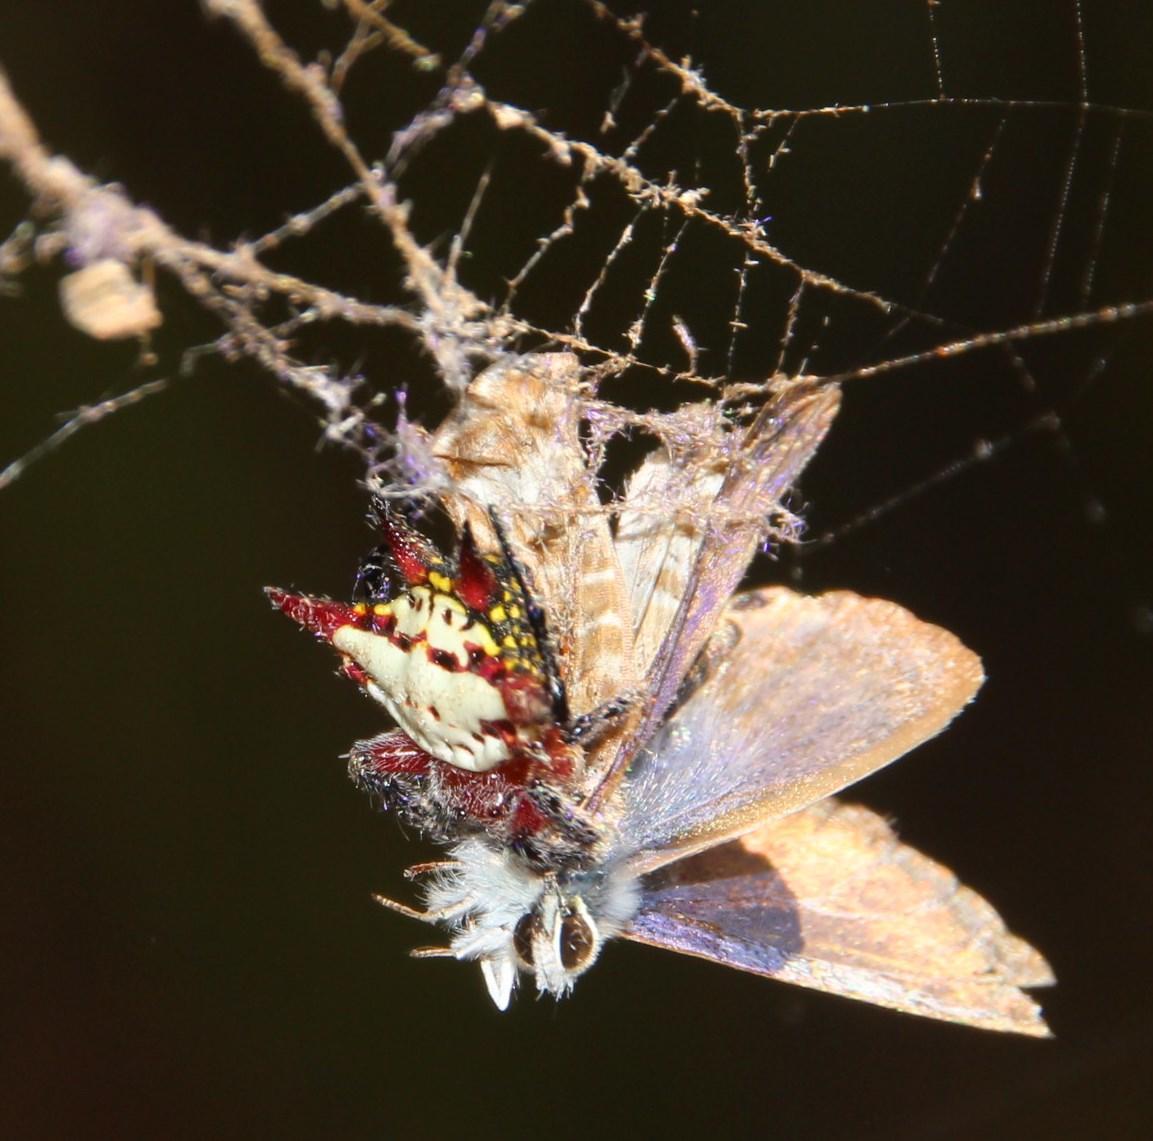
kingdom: Animalia
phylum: Arthropoda
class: Arachnida
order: Araneae
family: Araneidae
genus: Gasteracantha
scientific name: Gasteracantha sanguinolenta
